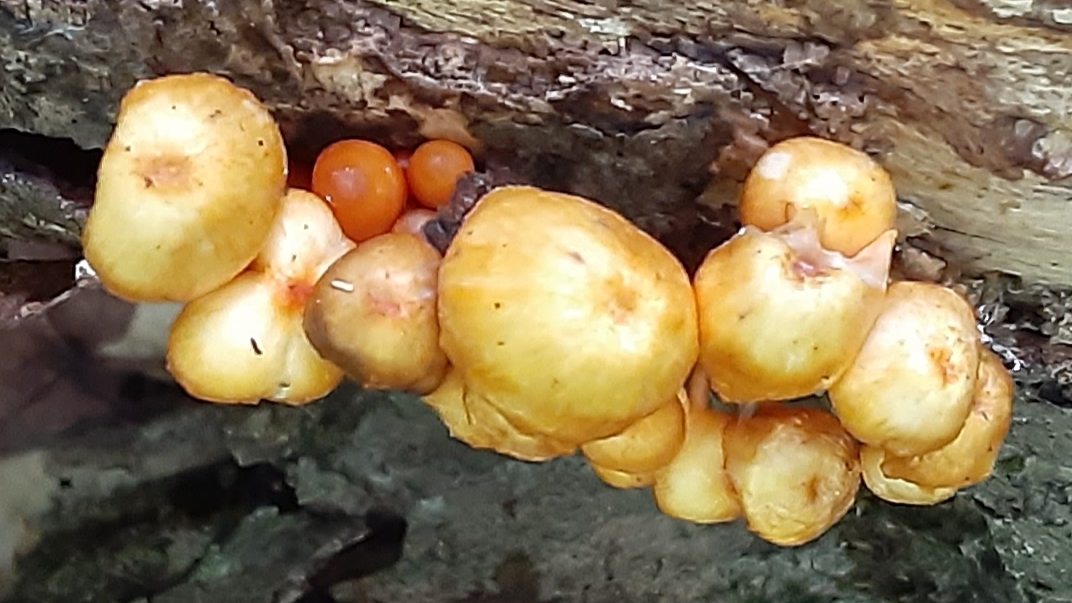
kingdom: Fungi
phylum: Basidiomycota
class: Agaricomycetes
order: Agaricales
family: Mycenaceae
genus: Mycena
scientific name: Mycena leaiana
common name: Orange mycena
